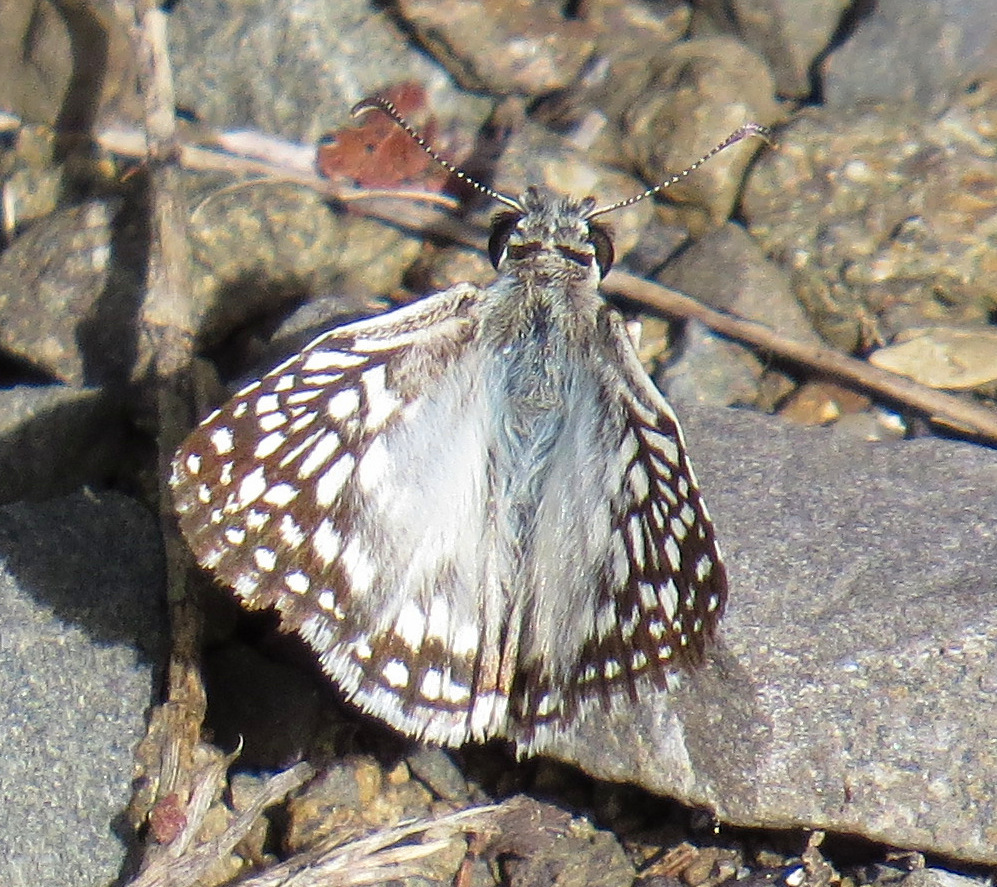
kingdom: Animalia
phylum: Arthropoda
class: Insecta
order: Lepidoptera
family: Hesperiidae
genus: Pyrgus
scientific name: Pyrgus oileus
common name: Tropical checkered-skipper
